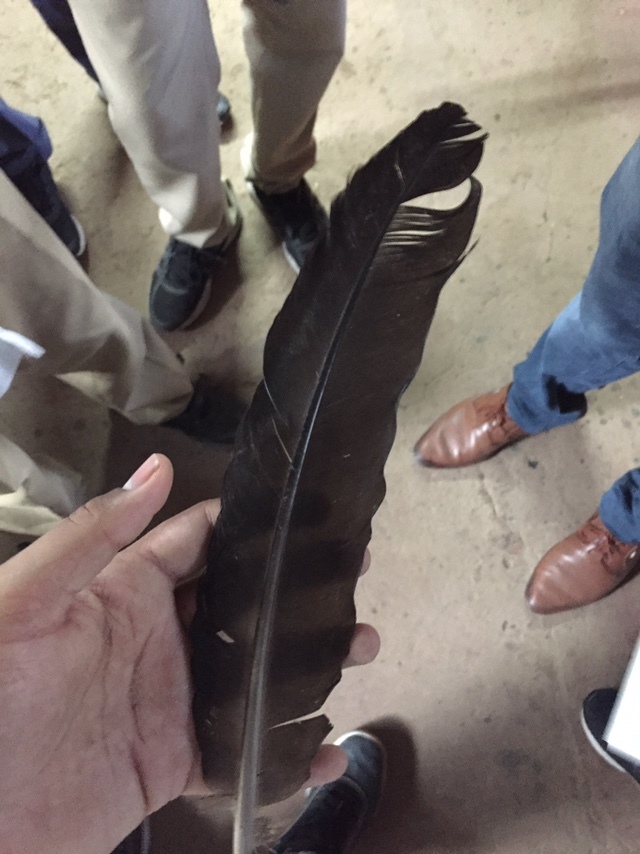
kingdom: Animalia
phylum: Chordata
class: Aves
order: Galliformes
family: Phasianidae
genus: Pavo
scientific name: Pavo cristatus
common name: Indian peafowl
